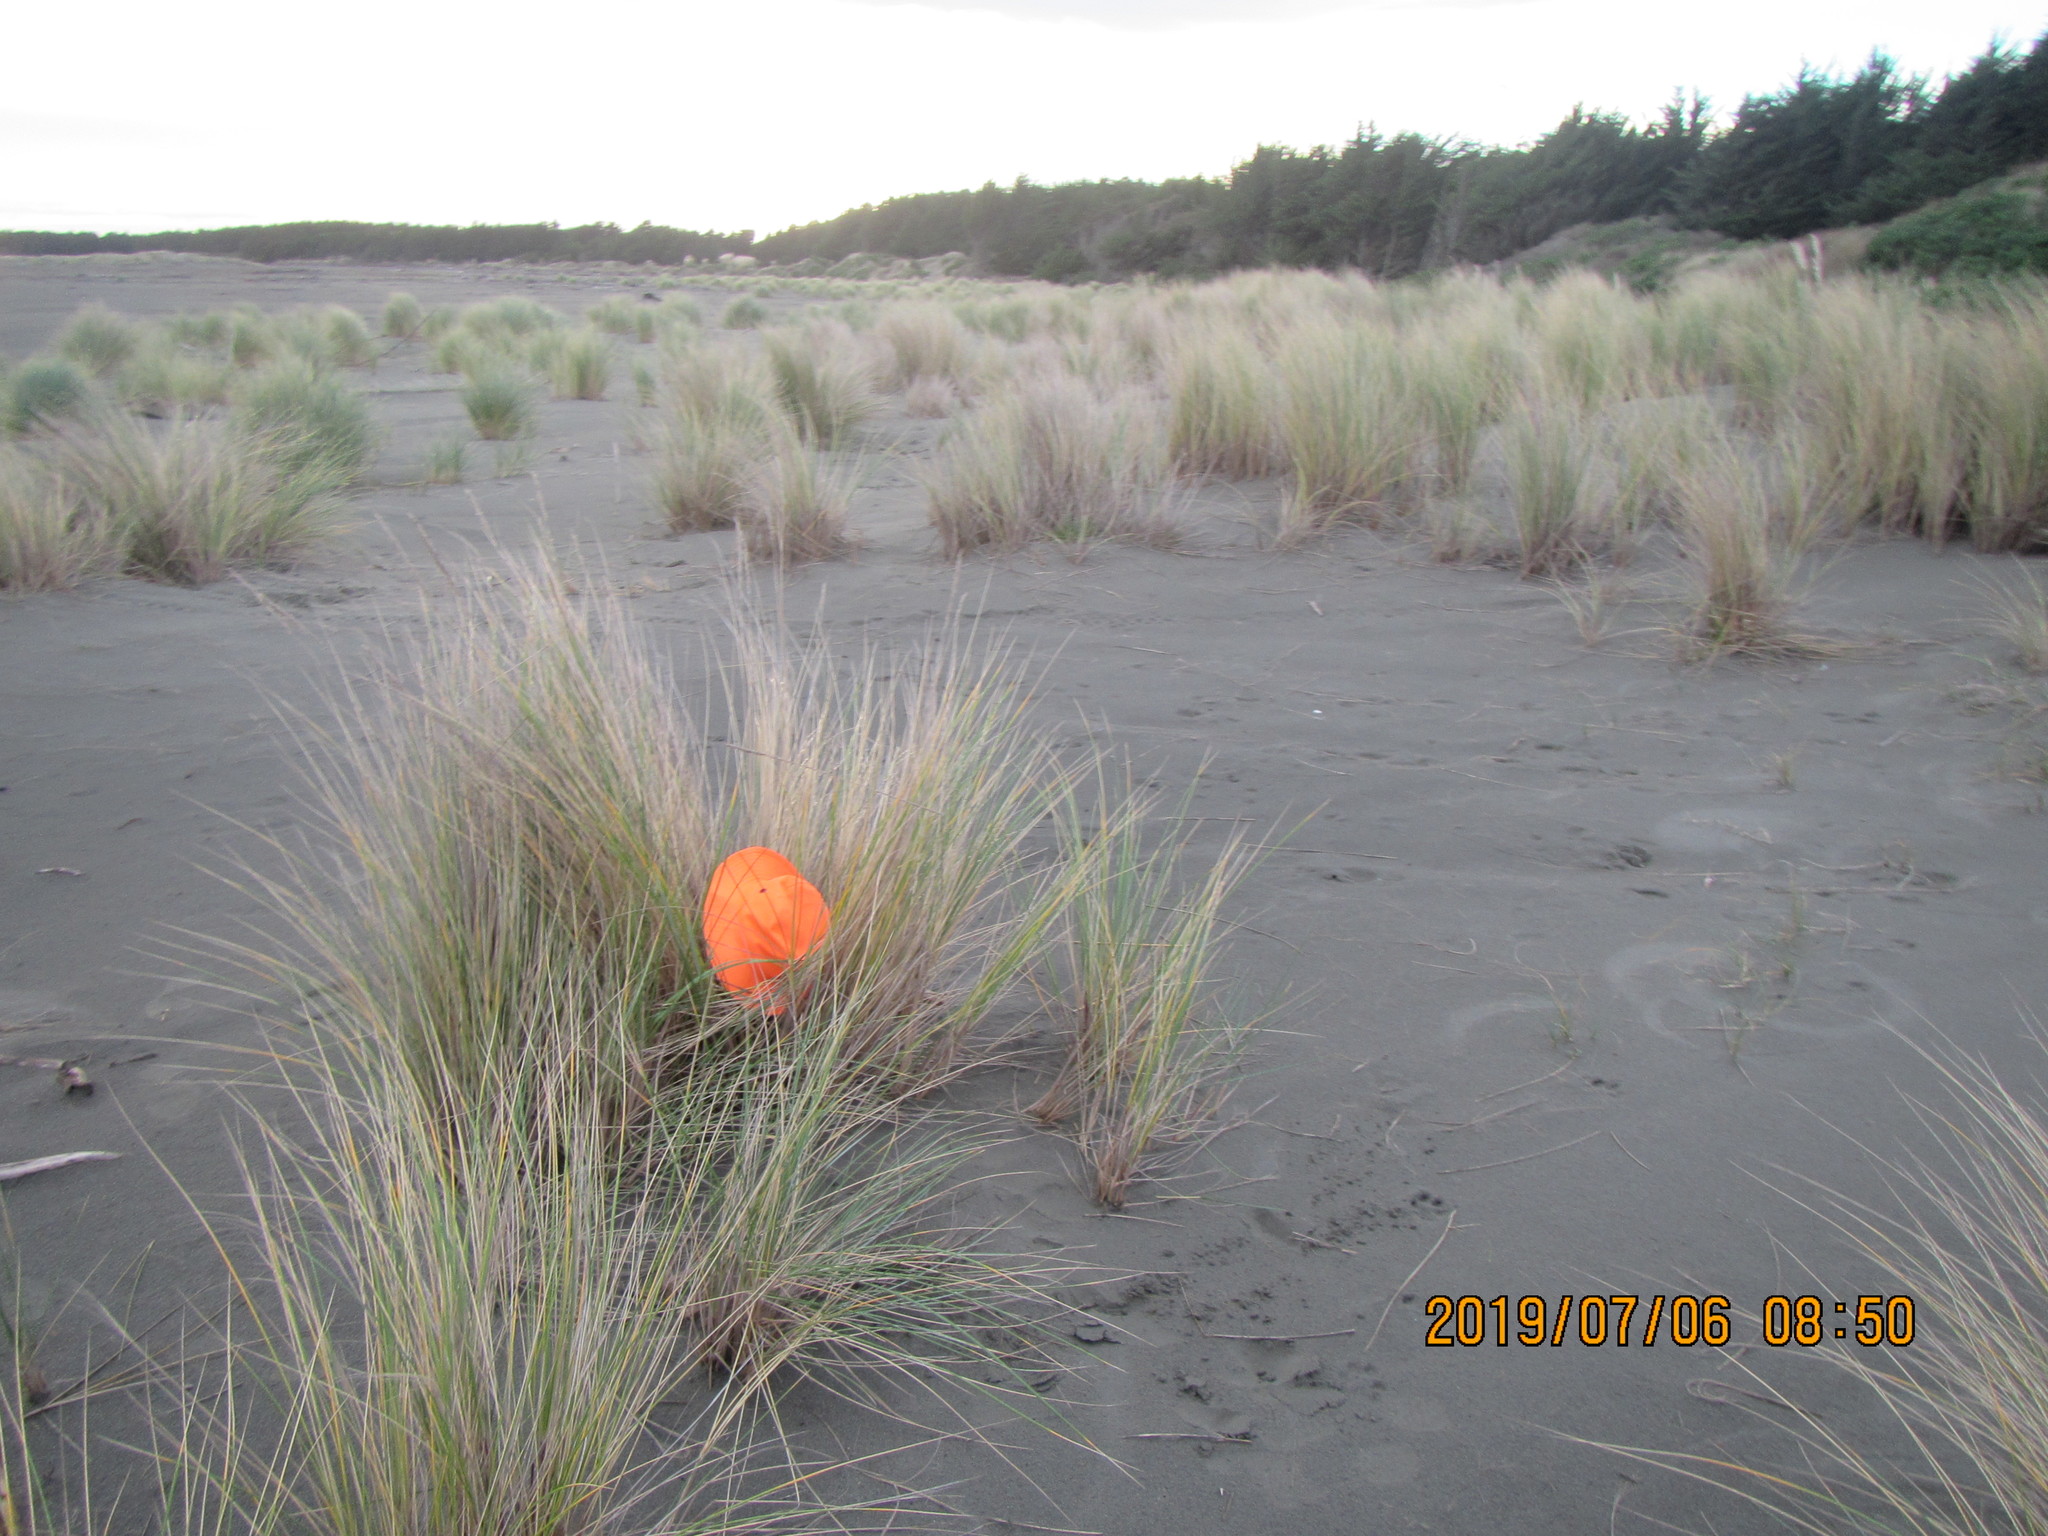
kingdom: Animalia
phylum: Arthropoda
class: Arachnida
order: Araneae
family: Porrhothelidae
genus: Porrhothele
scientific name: Porrhothele antipodiana
